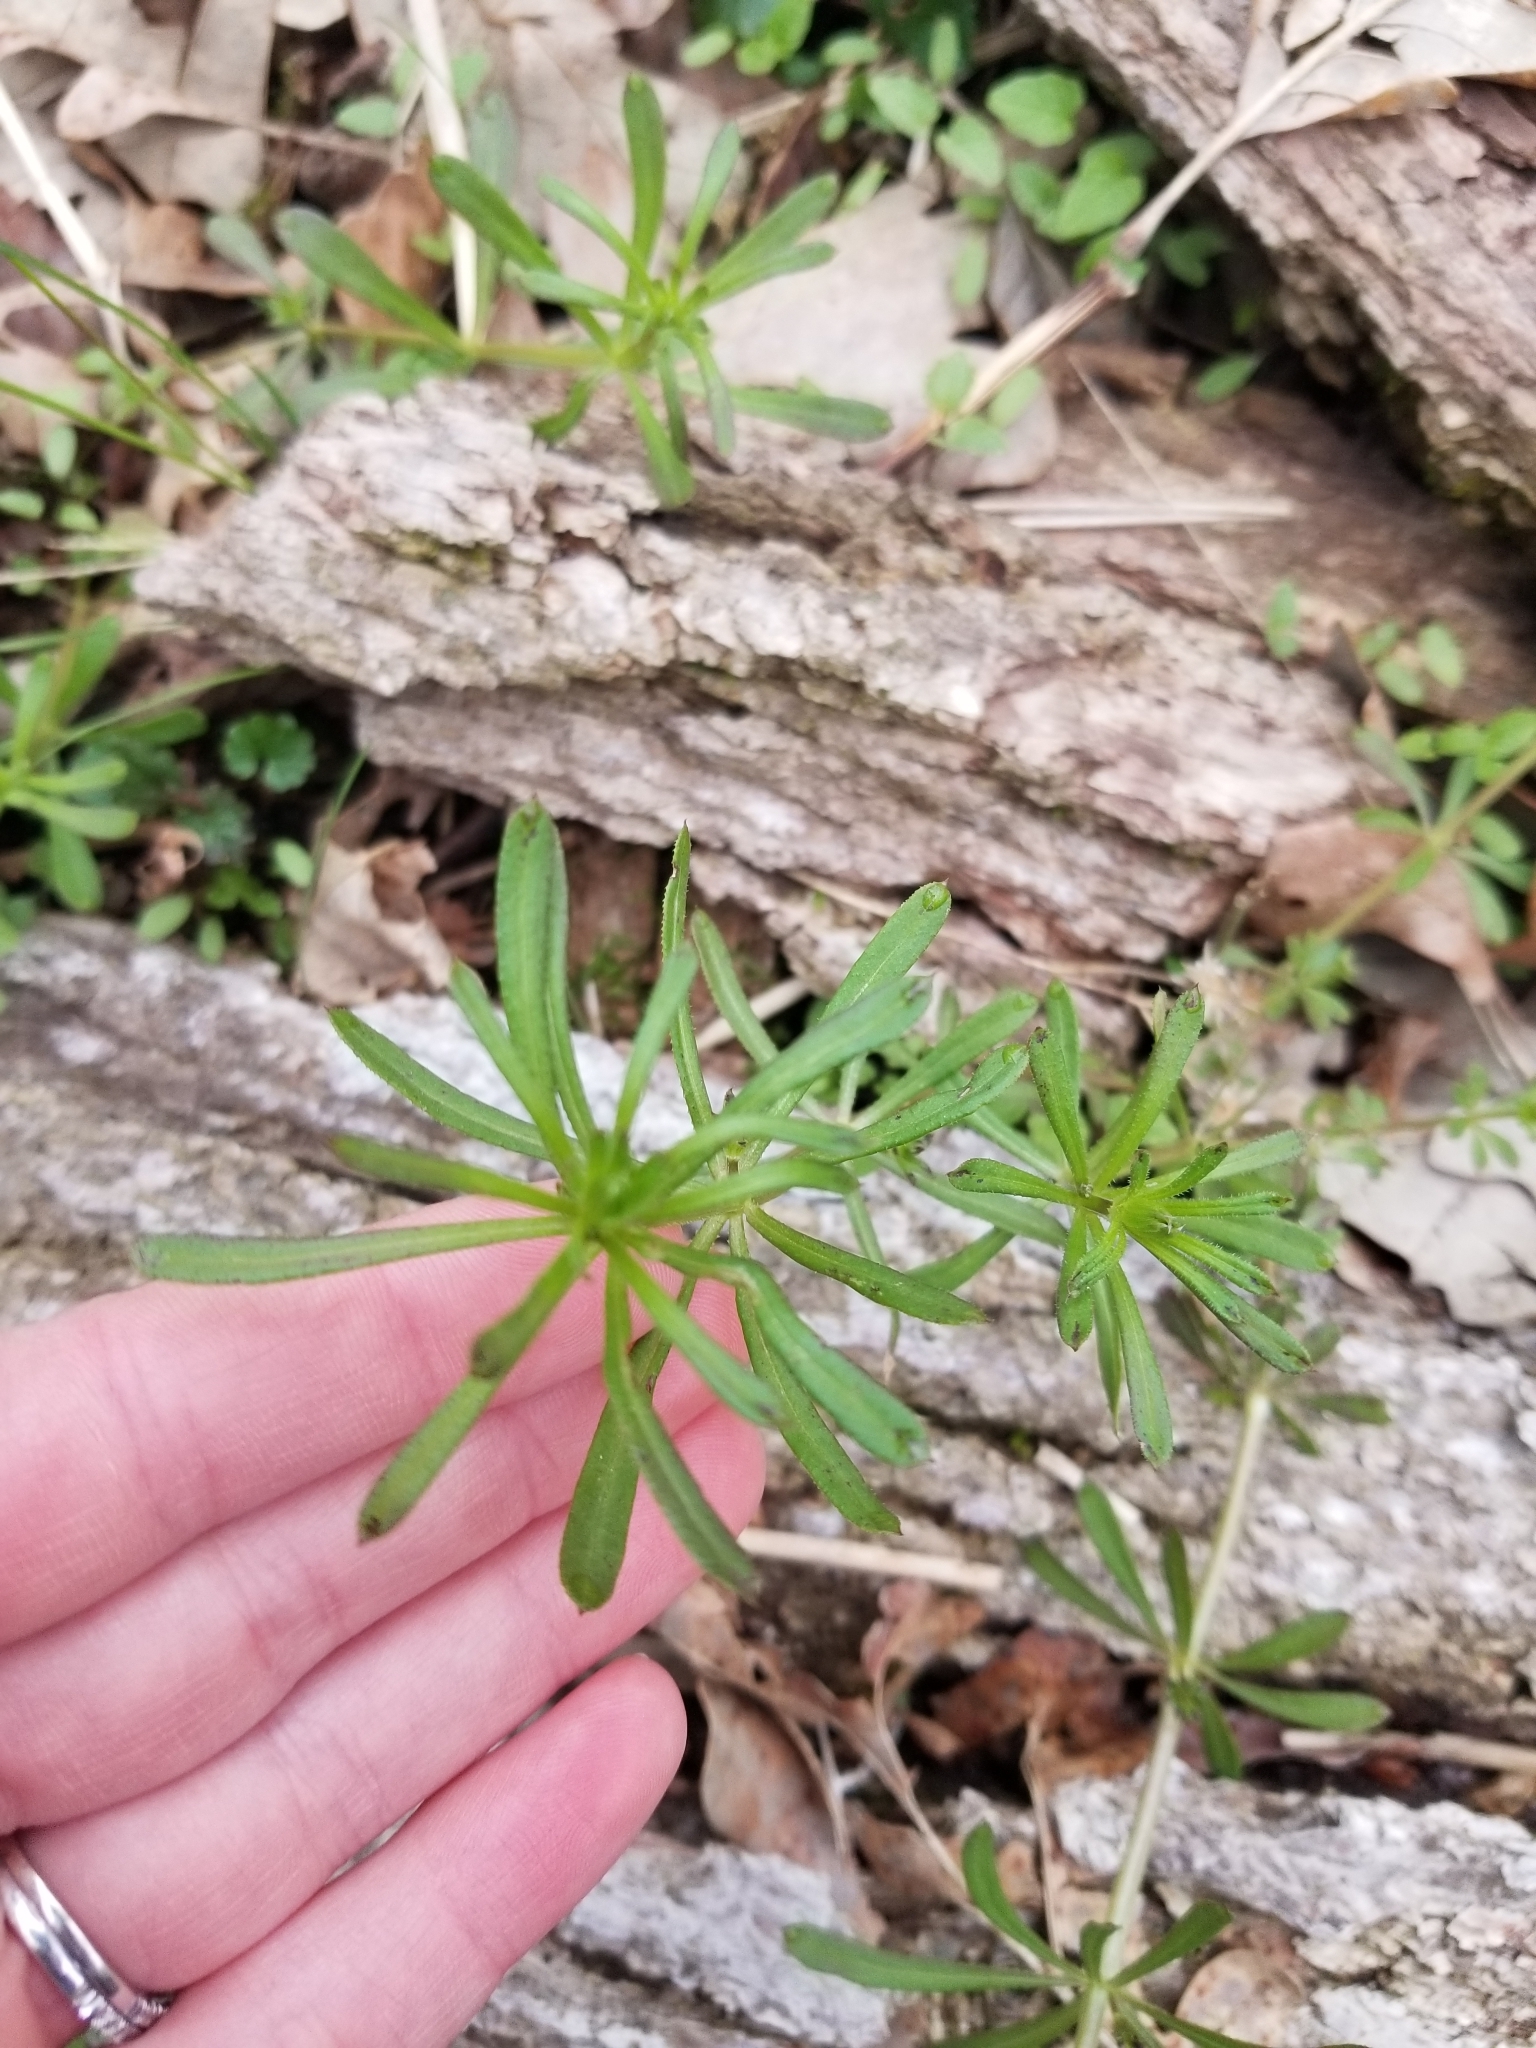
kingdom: Plantae
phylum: Tracheophyta
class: Magnoliopsida
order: Gentianales
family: Rubiaceae
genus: Galium
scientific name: Galium aparine
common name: Cleavers
